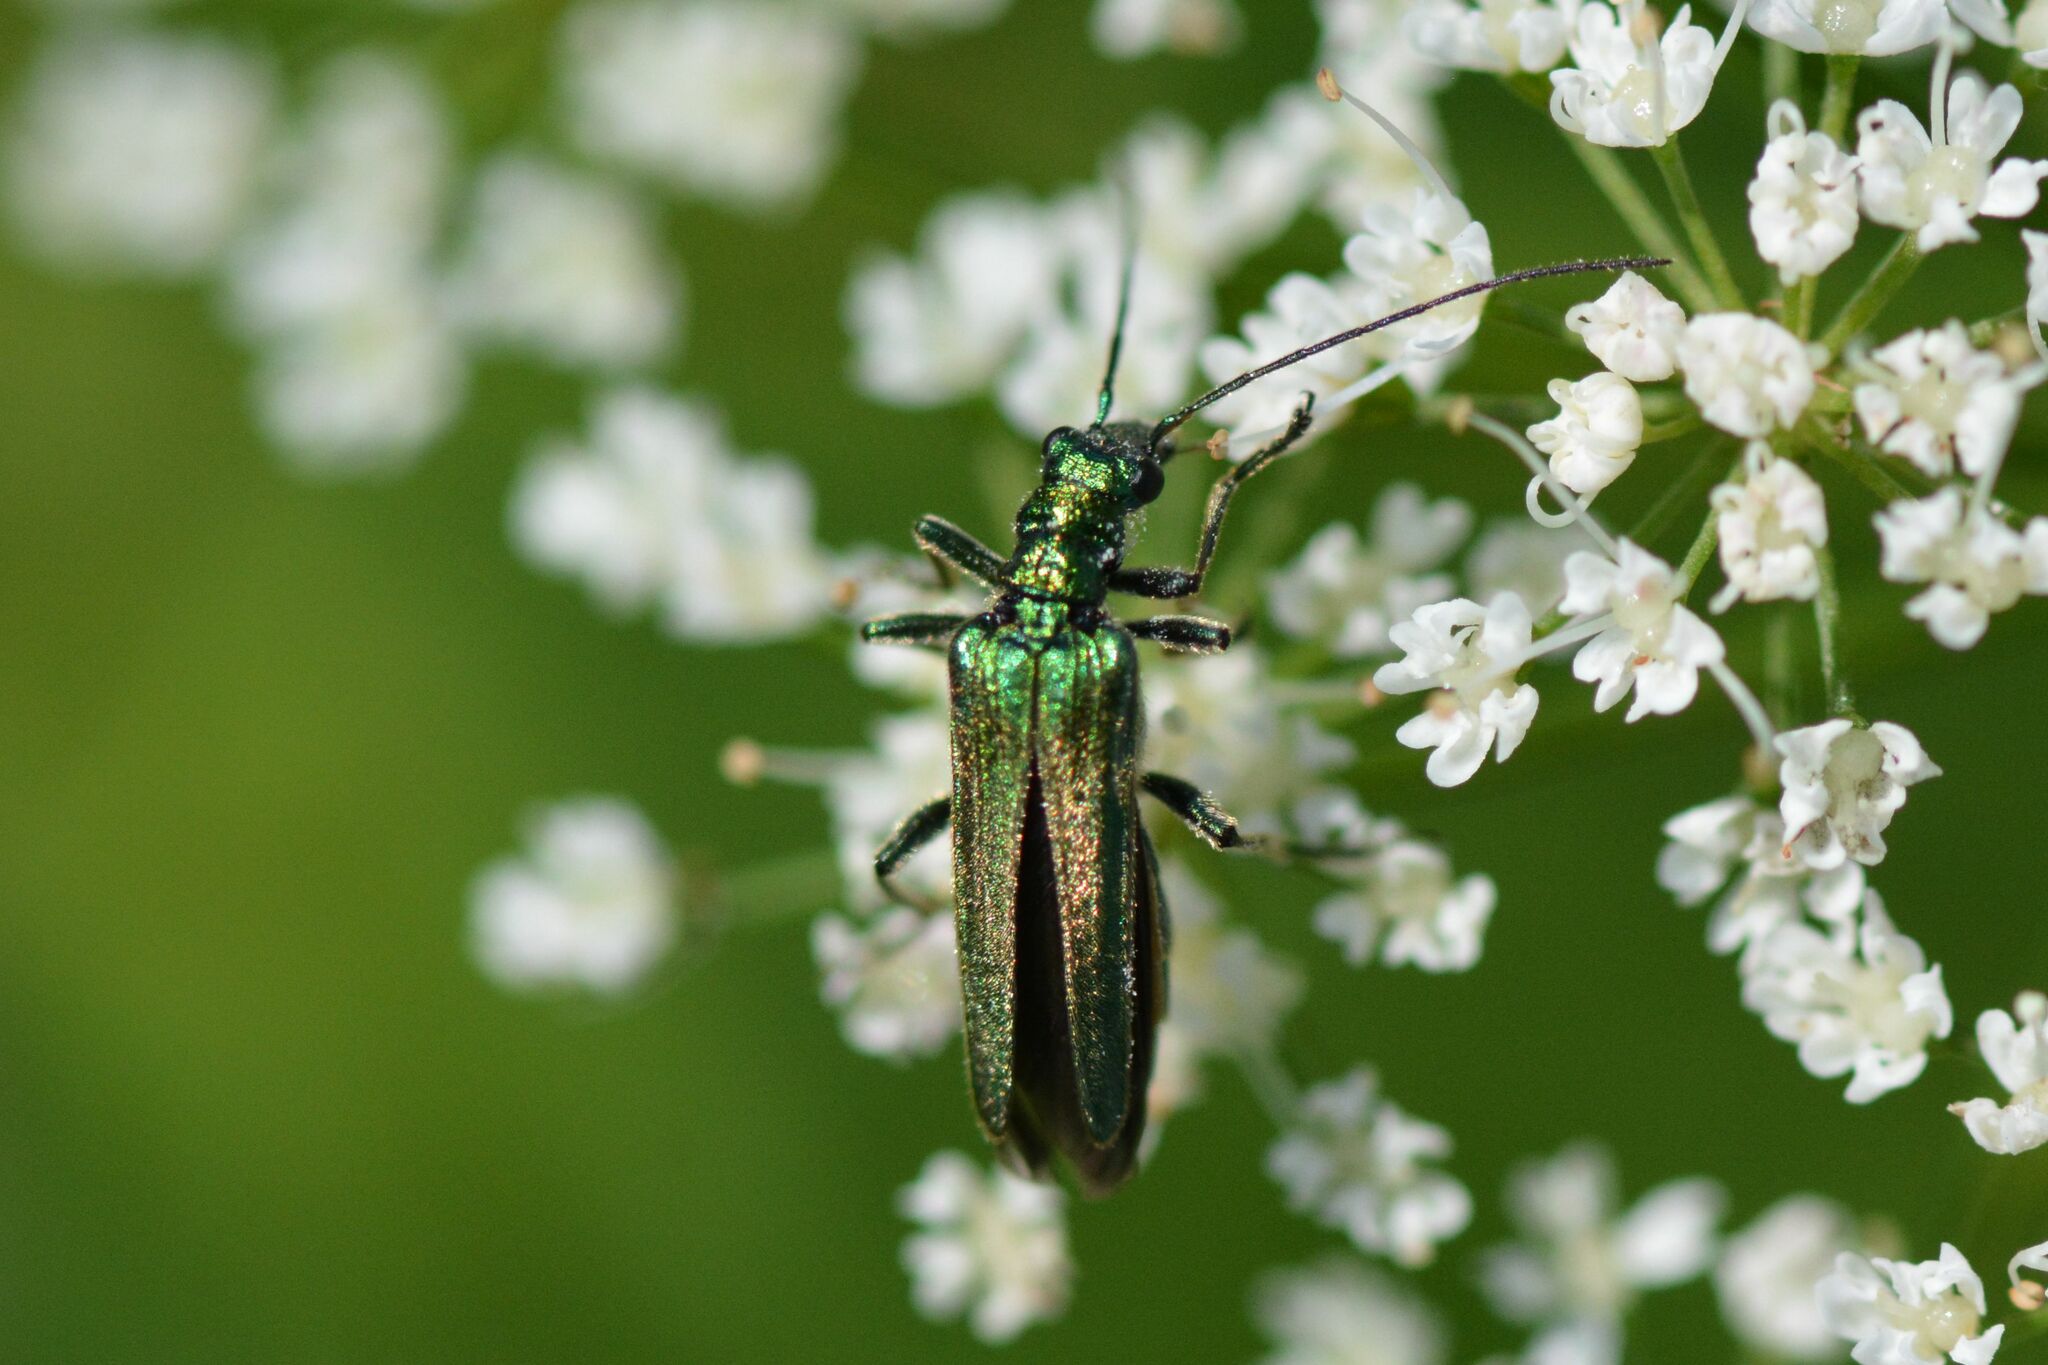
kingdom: Animalia
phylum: Arthropoda
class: Insecta
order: Coleoptera
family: Oedemeridae
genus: Oedemera
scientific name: Oedemera nobilis
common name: Swollen-thighed beetle
